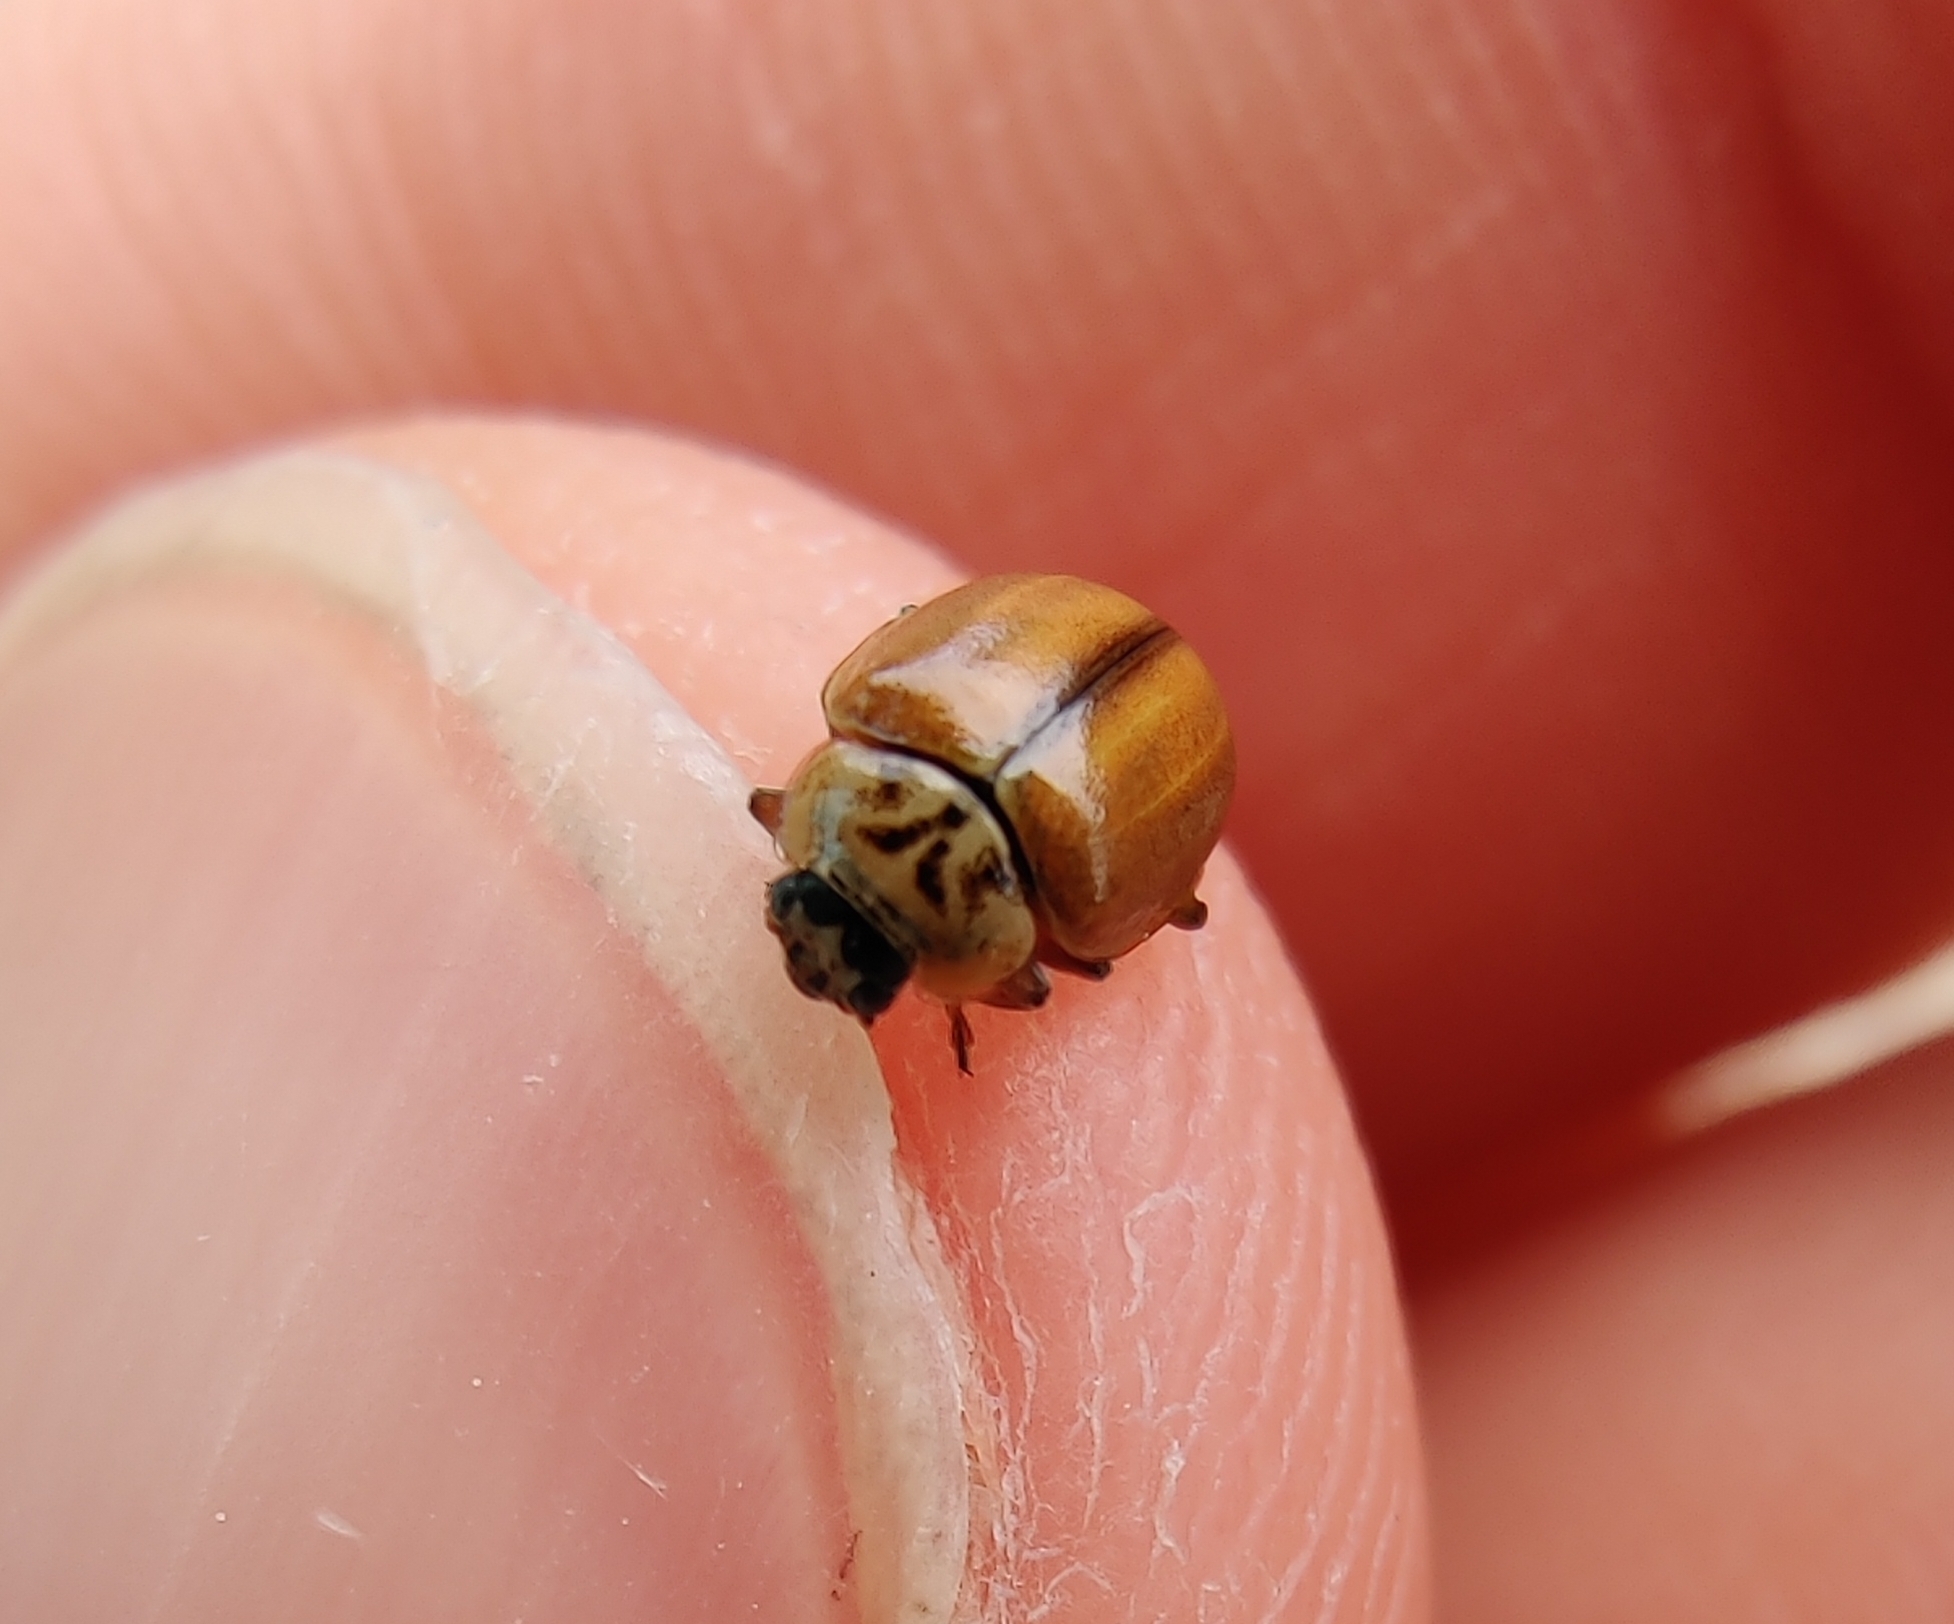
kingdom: Animalia
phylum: Arthropoda
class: Insecta
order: Coleoptera
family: Coccinellidae
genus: Aphidecta
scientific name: Aphidecta obliterata
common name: Larch ladybird
